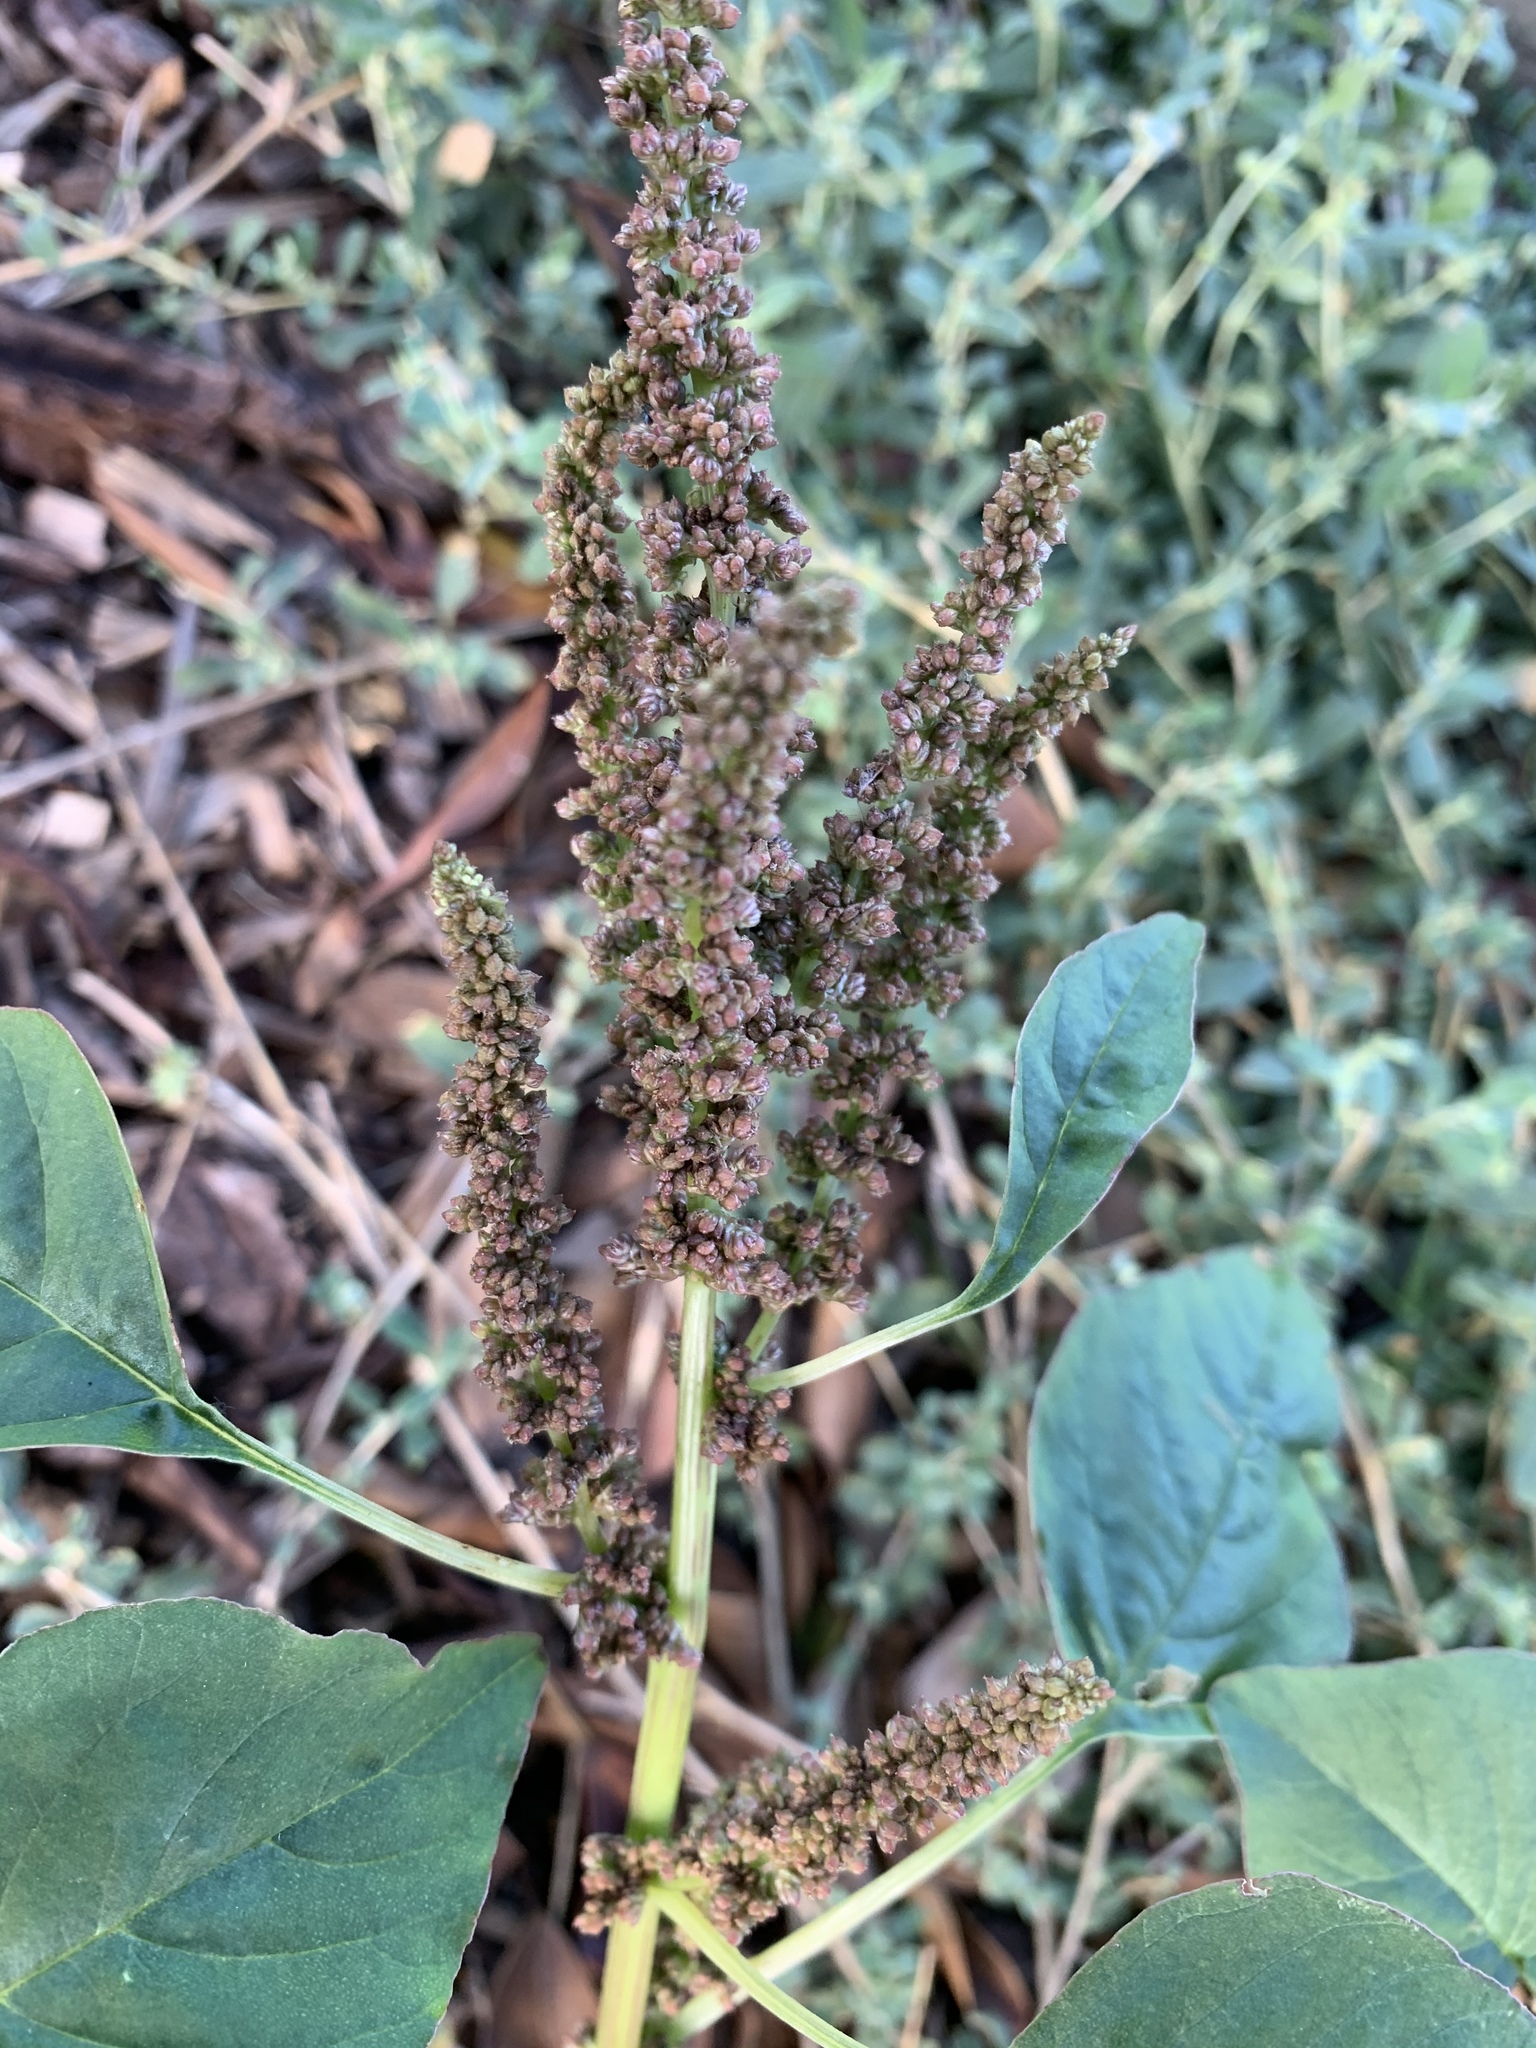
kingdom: Plantae
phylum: Tracheophyta
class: Magnoliopsida
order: Caryophyllales
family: Amaranthaceae
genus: Amaranthus
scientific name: Amaranthus viridis
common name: Slender amaranth
